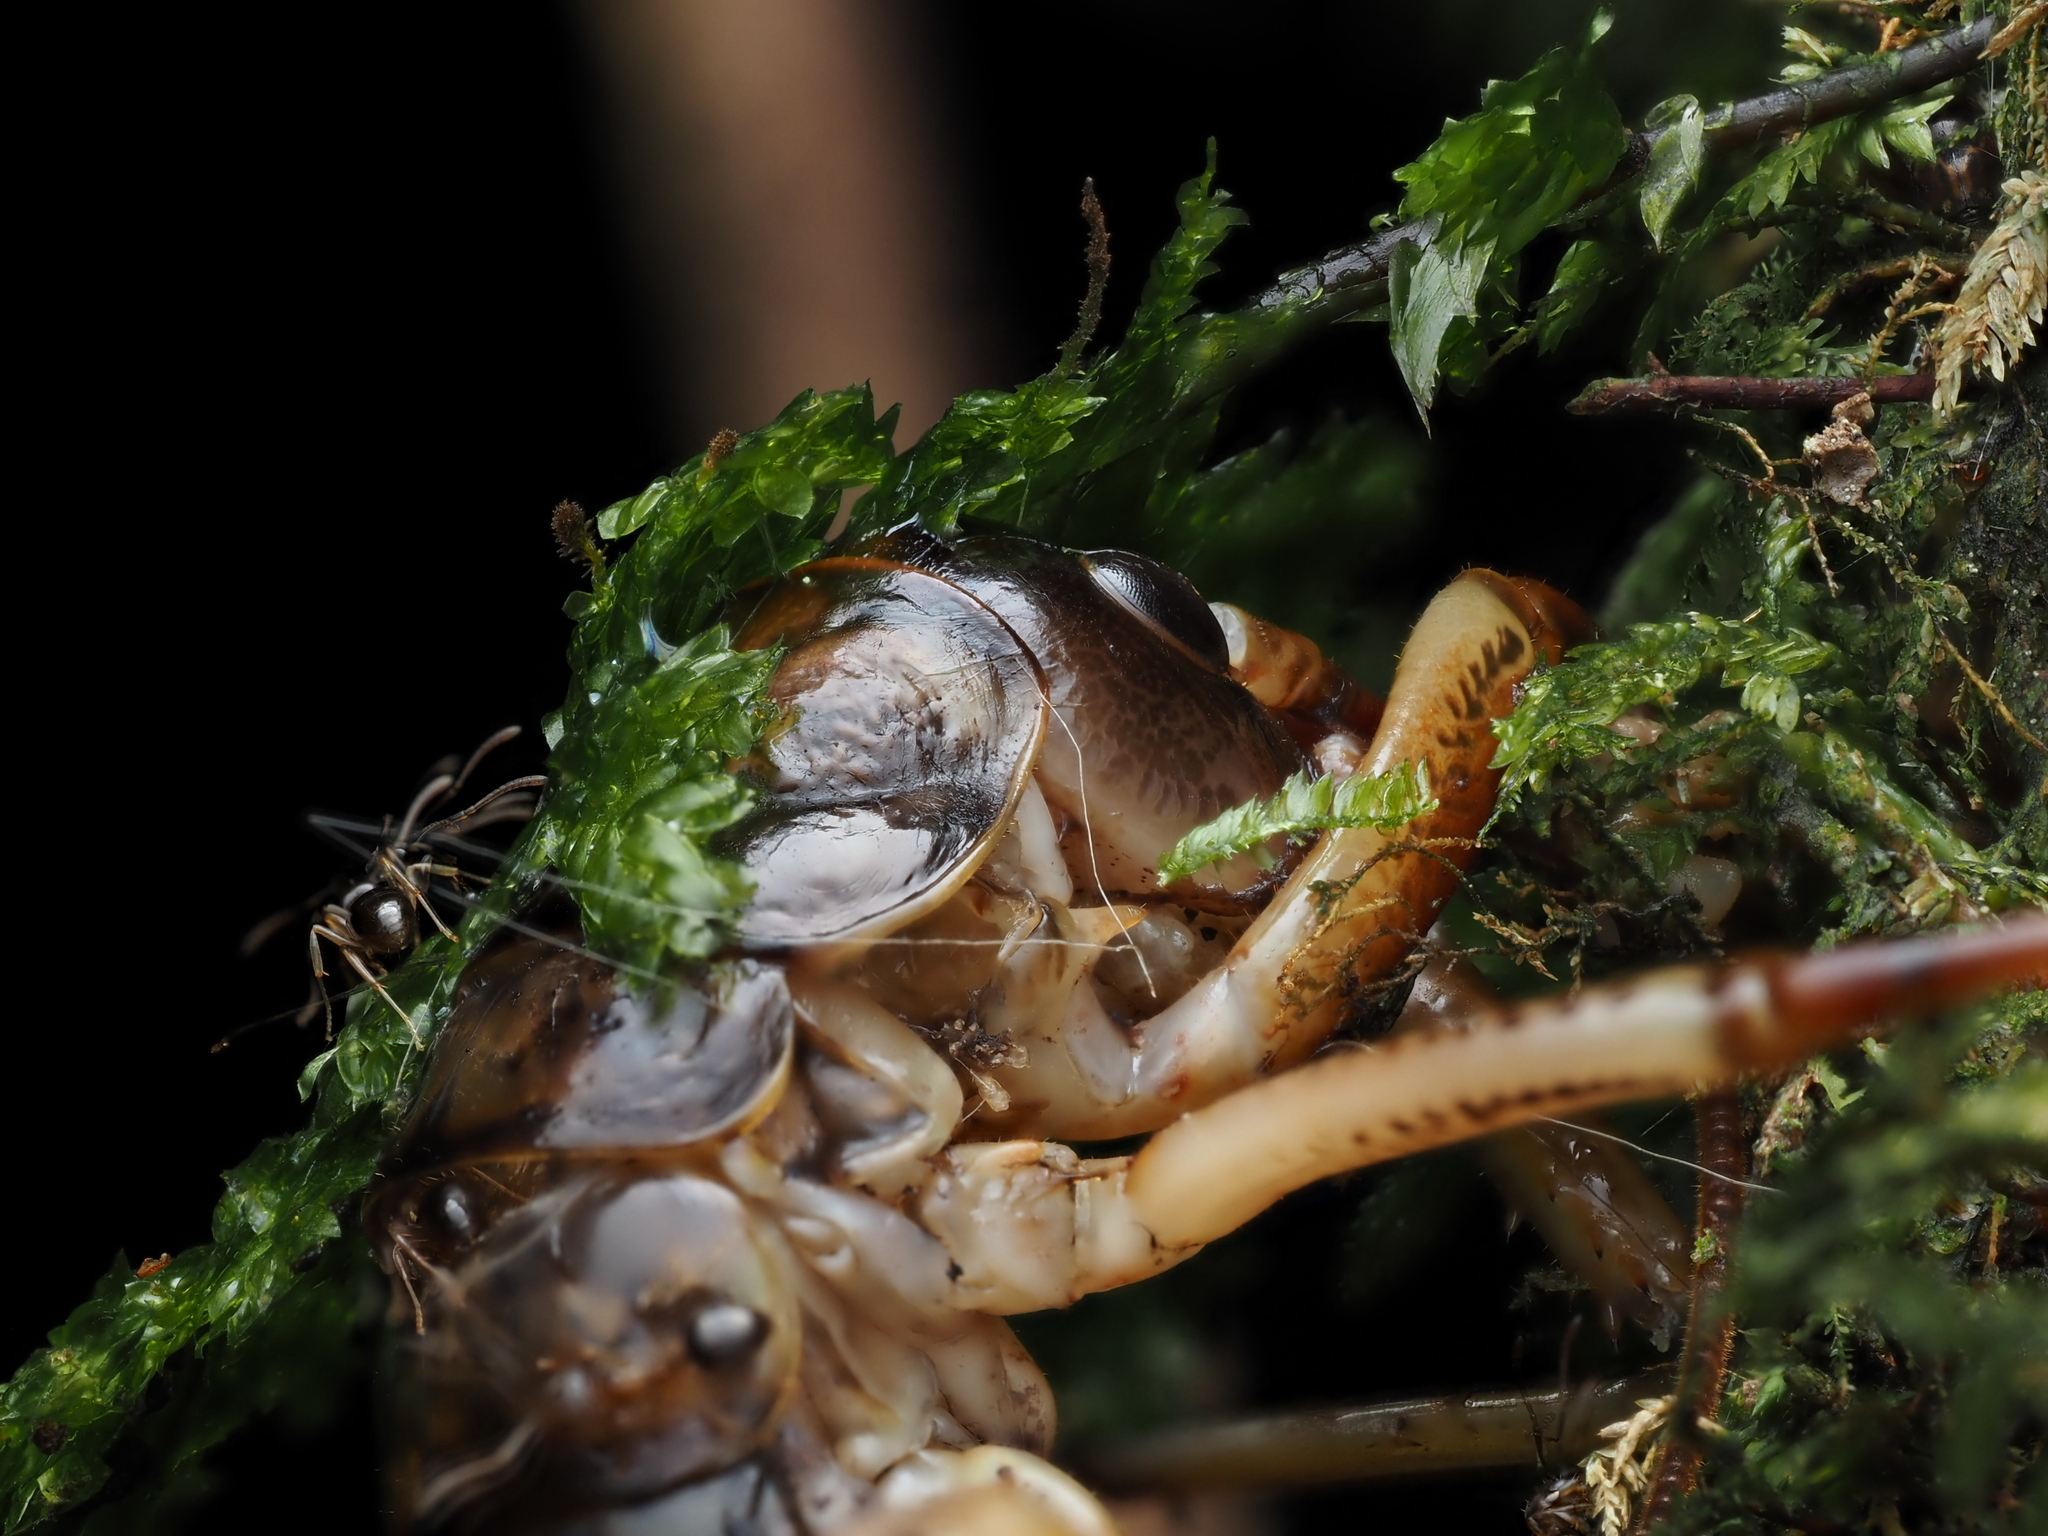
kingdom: Animalia
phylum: Arthropoda
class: Insecta
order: Orthoptera
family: Anostostomatidae
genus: Hemideina
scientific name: Hemideina thoracica
